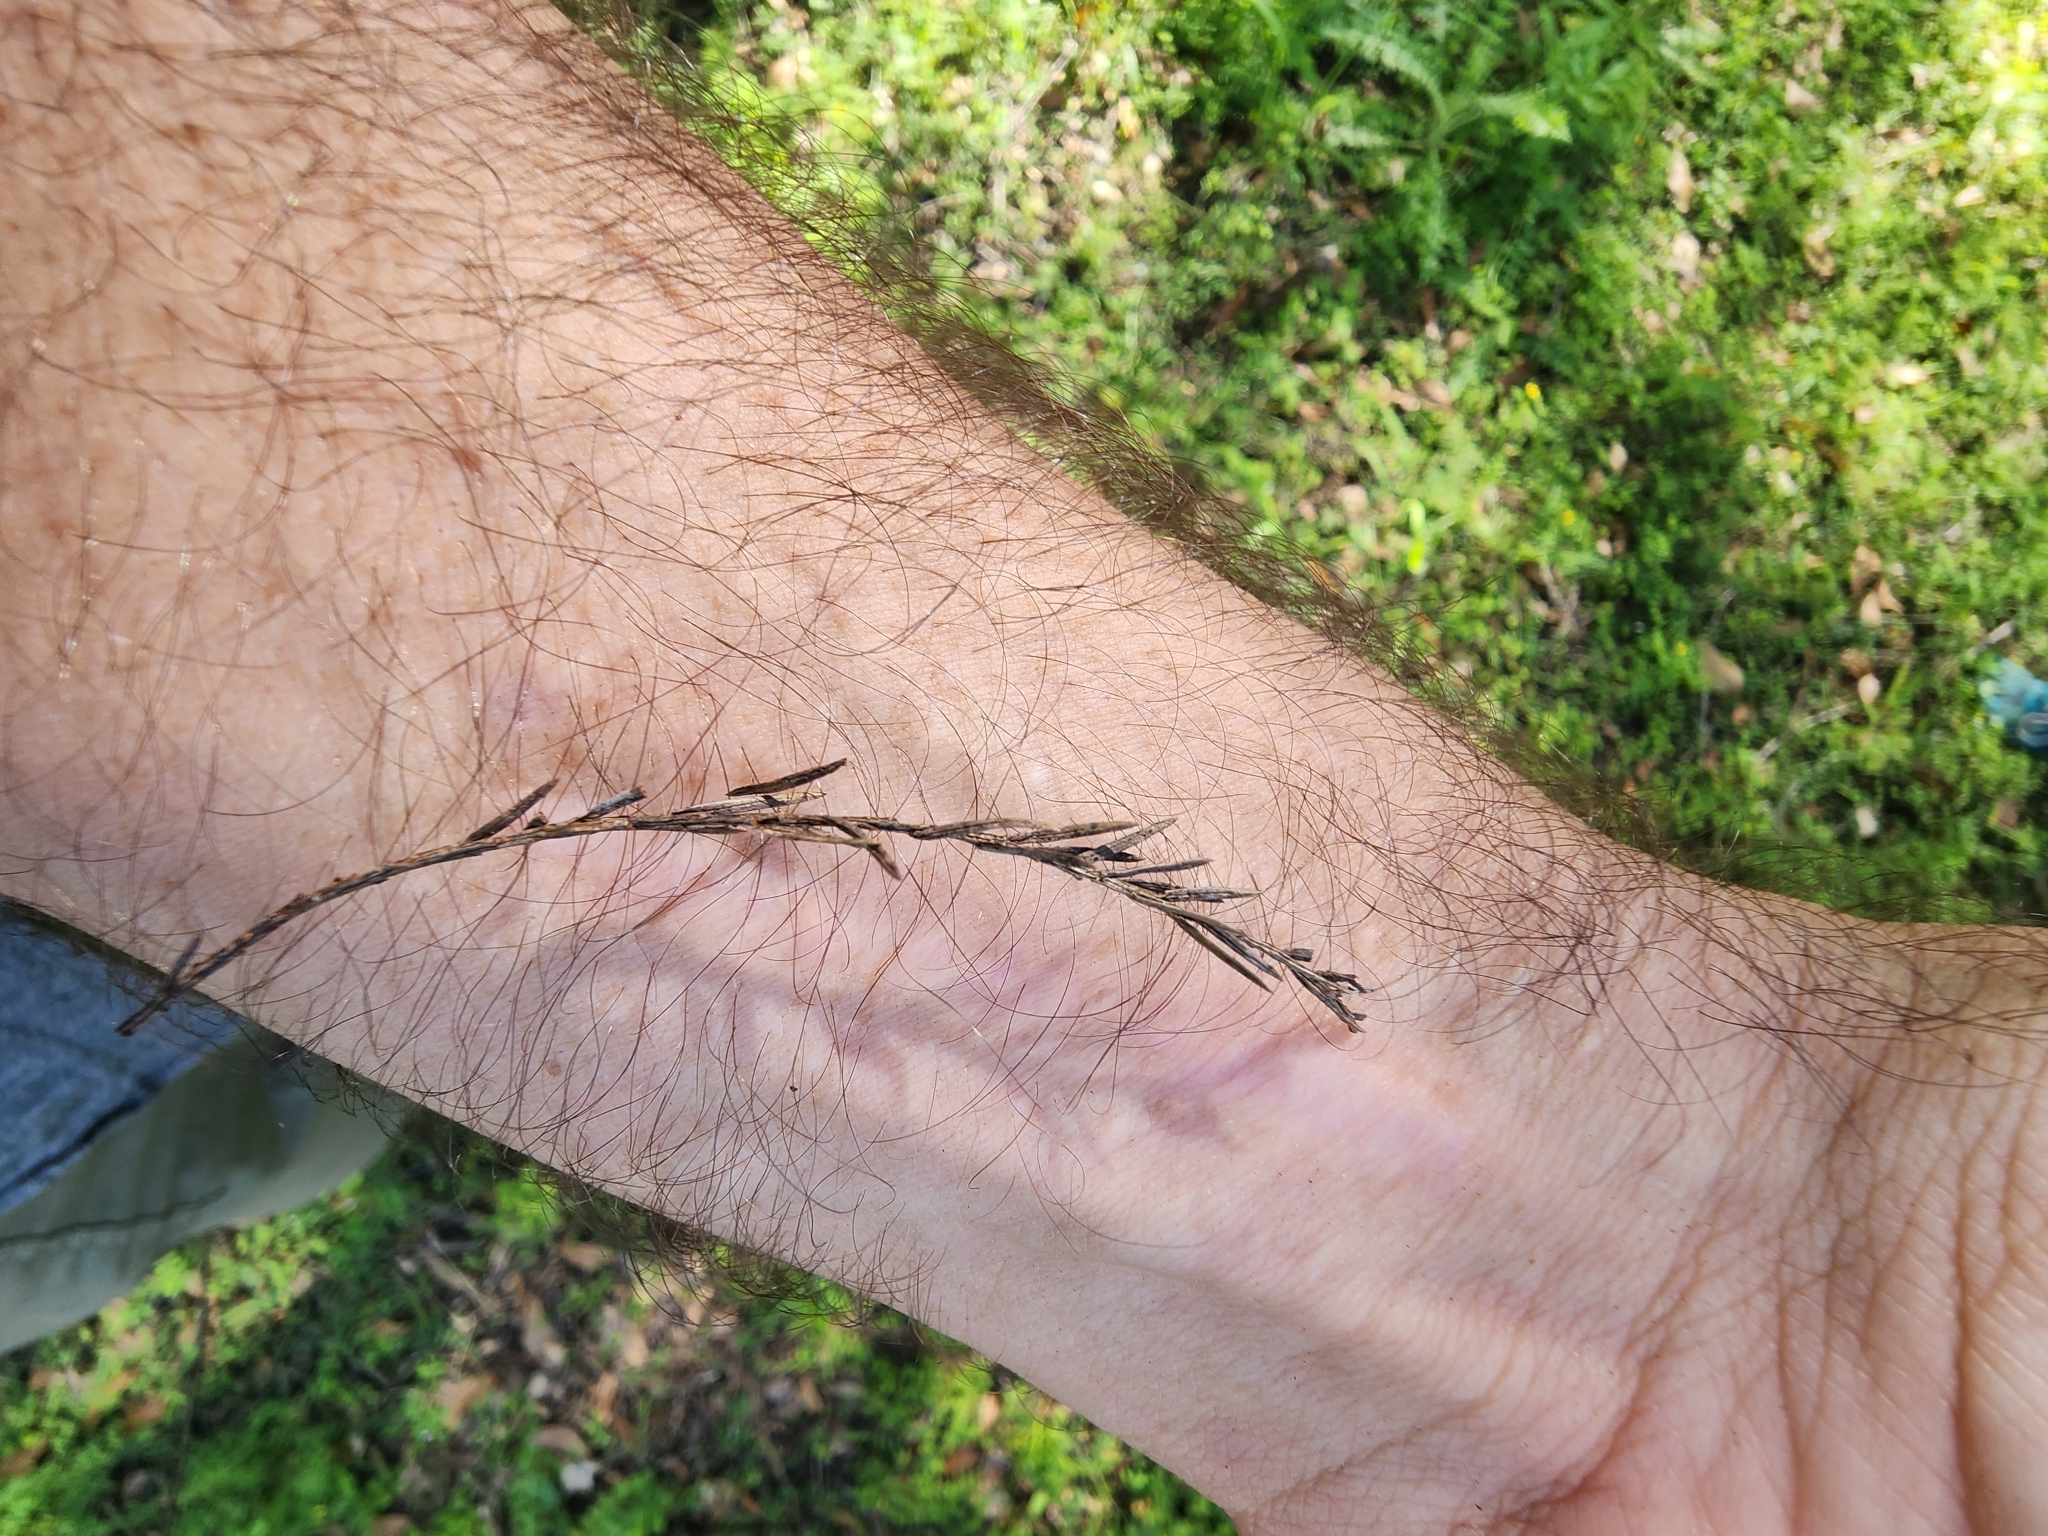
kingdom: Plantae
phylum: Tracheophyta
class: Pinopsida
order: Pinales
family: Cupressaceae
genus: Taxodium
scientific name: Taxodium distichum
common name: Bald cypress
